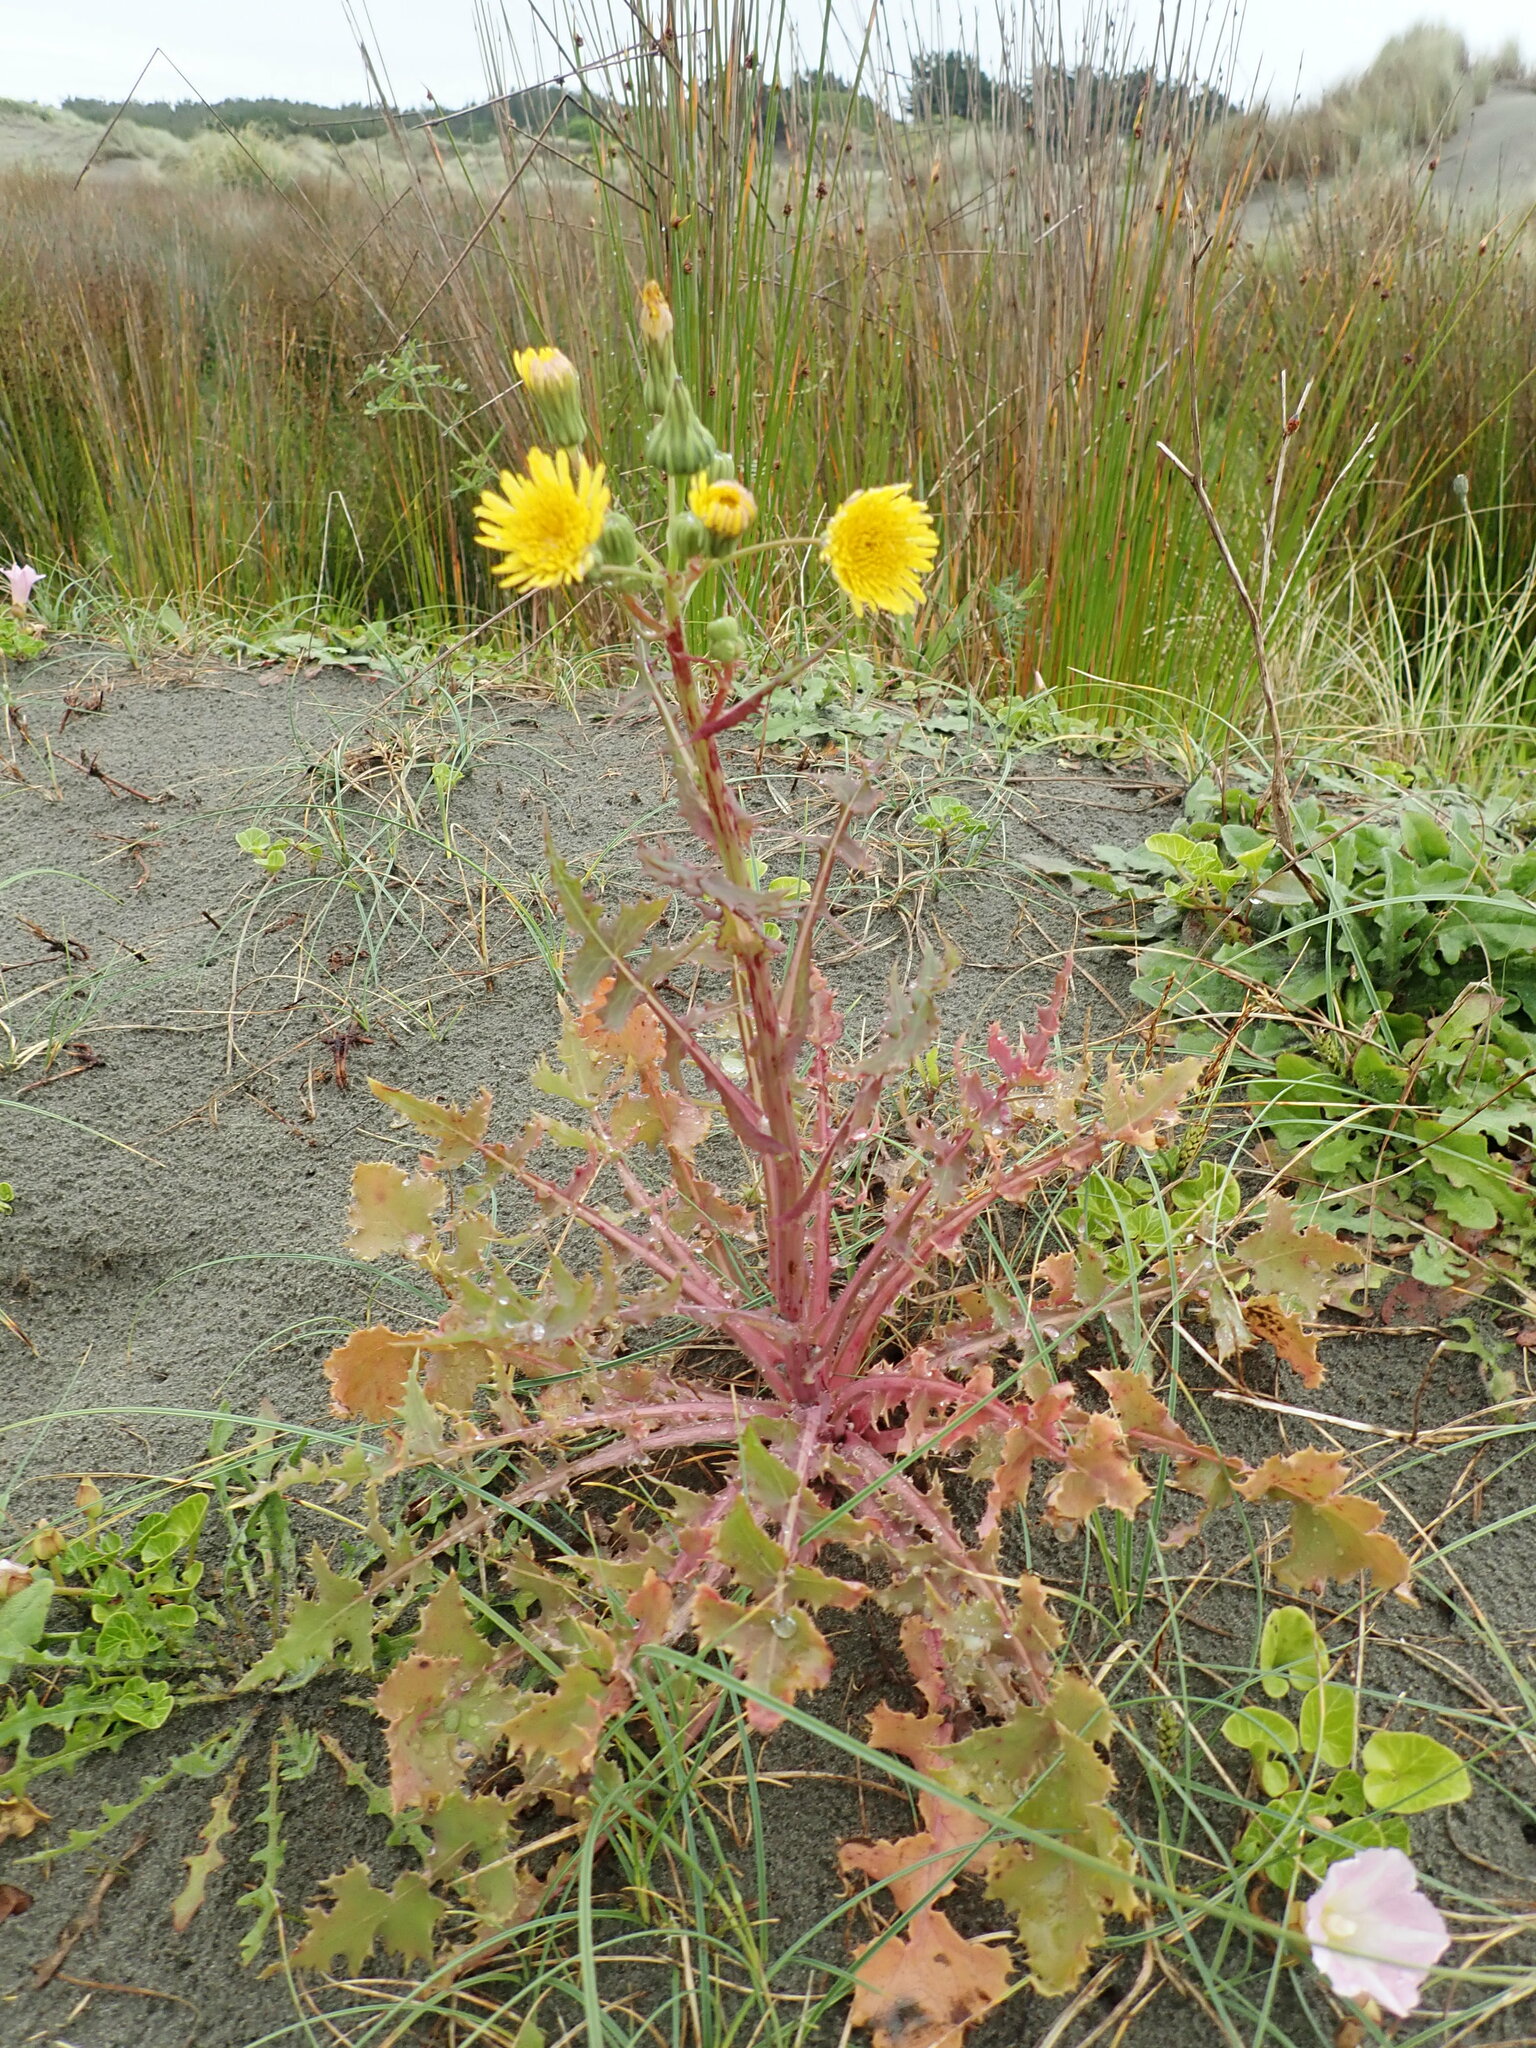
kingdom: Plantae
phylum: Tracheophyta
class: Magnoliopsida
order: Asterales
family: Asteraceae
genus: Sonchus
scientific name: Sonchus oleraceus
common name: Common sowthistle
